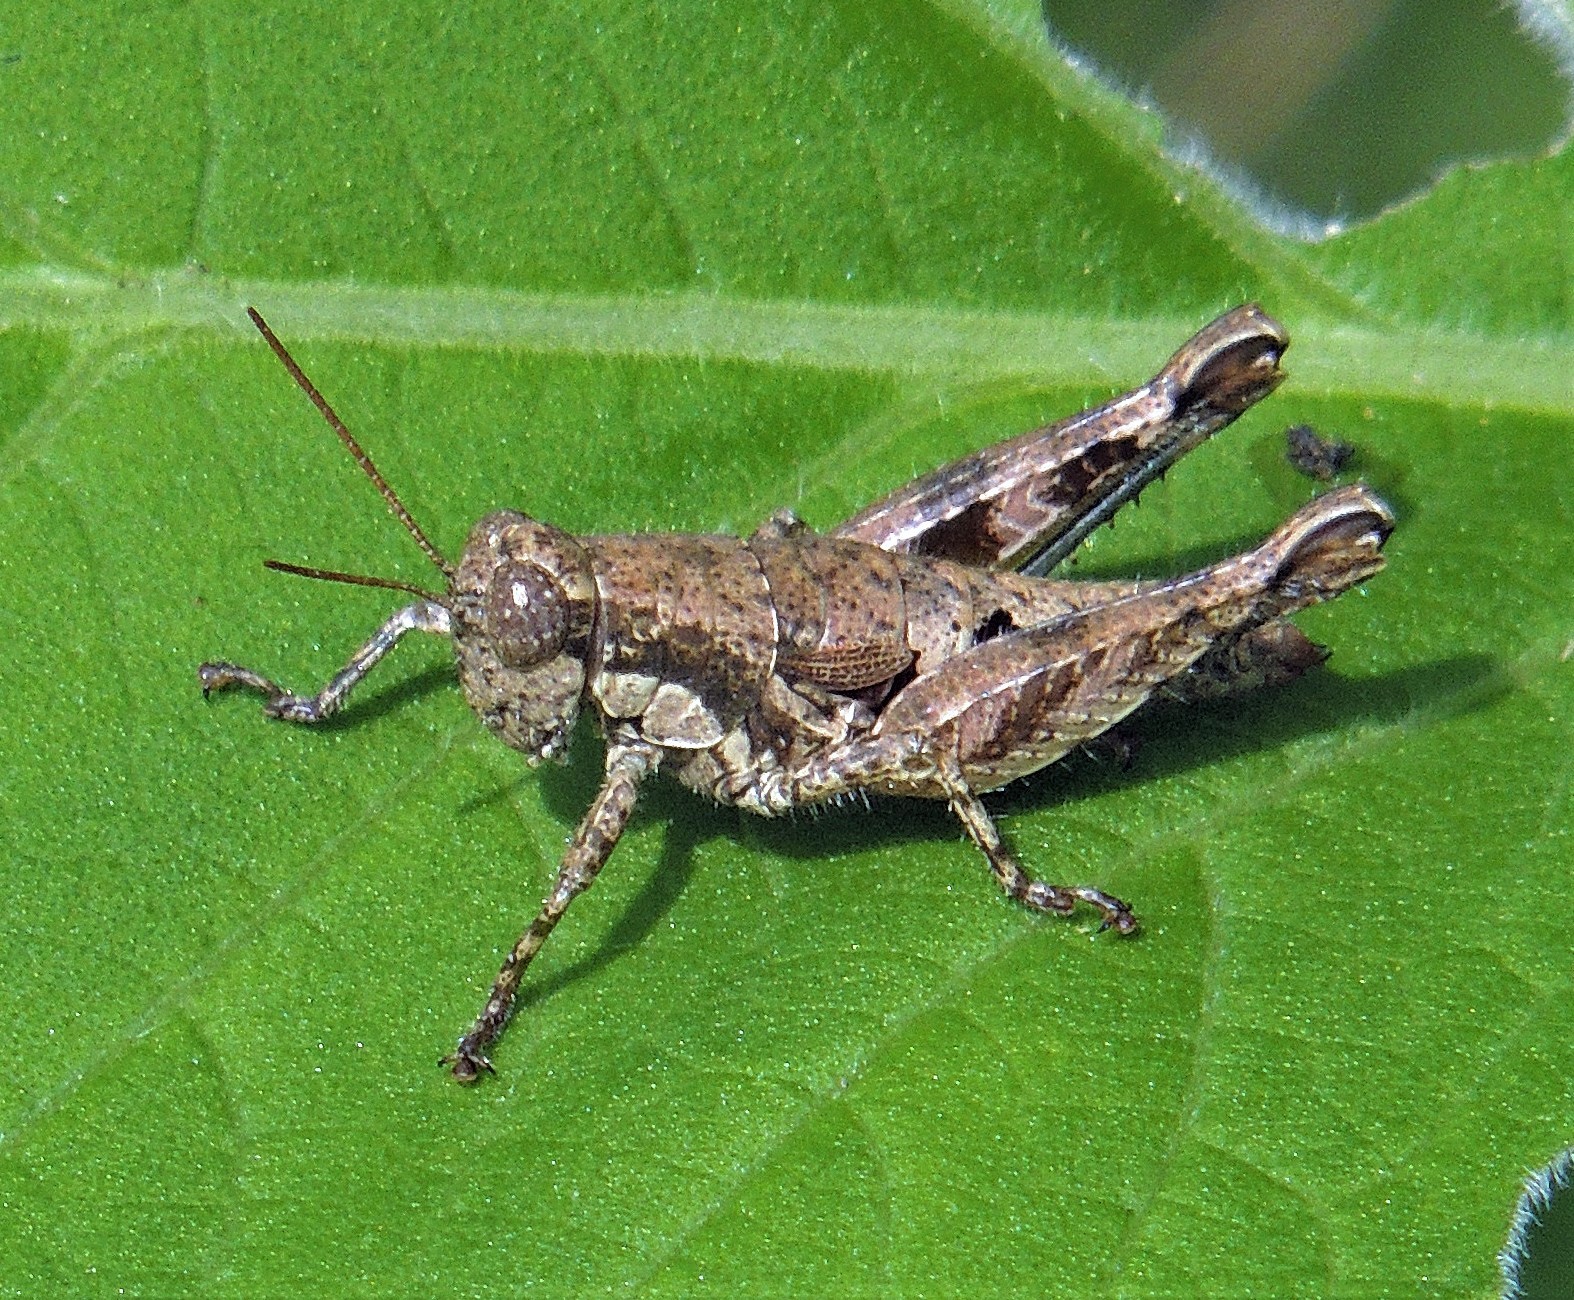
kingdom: Animalia
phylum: Arthropoda
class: Insecta
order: Orthoptera
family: Acrididae
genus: Apacris
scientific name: Apacris aberrans
